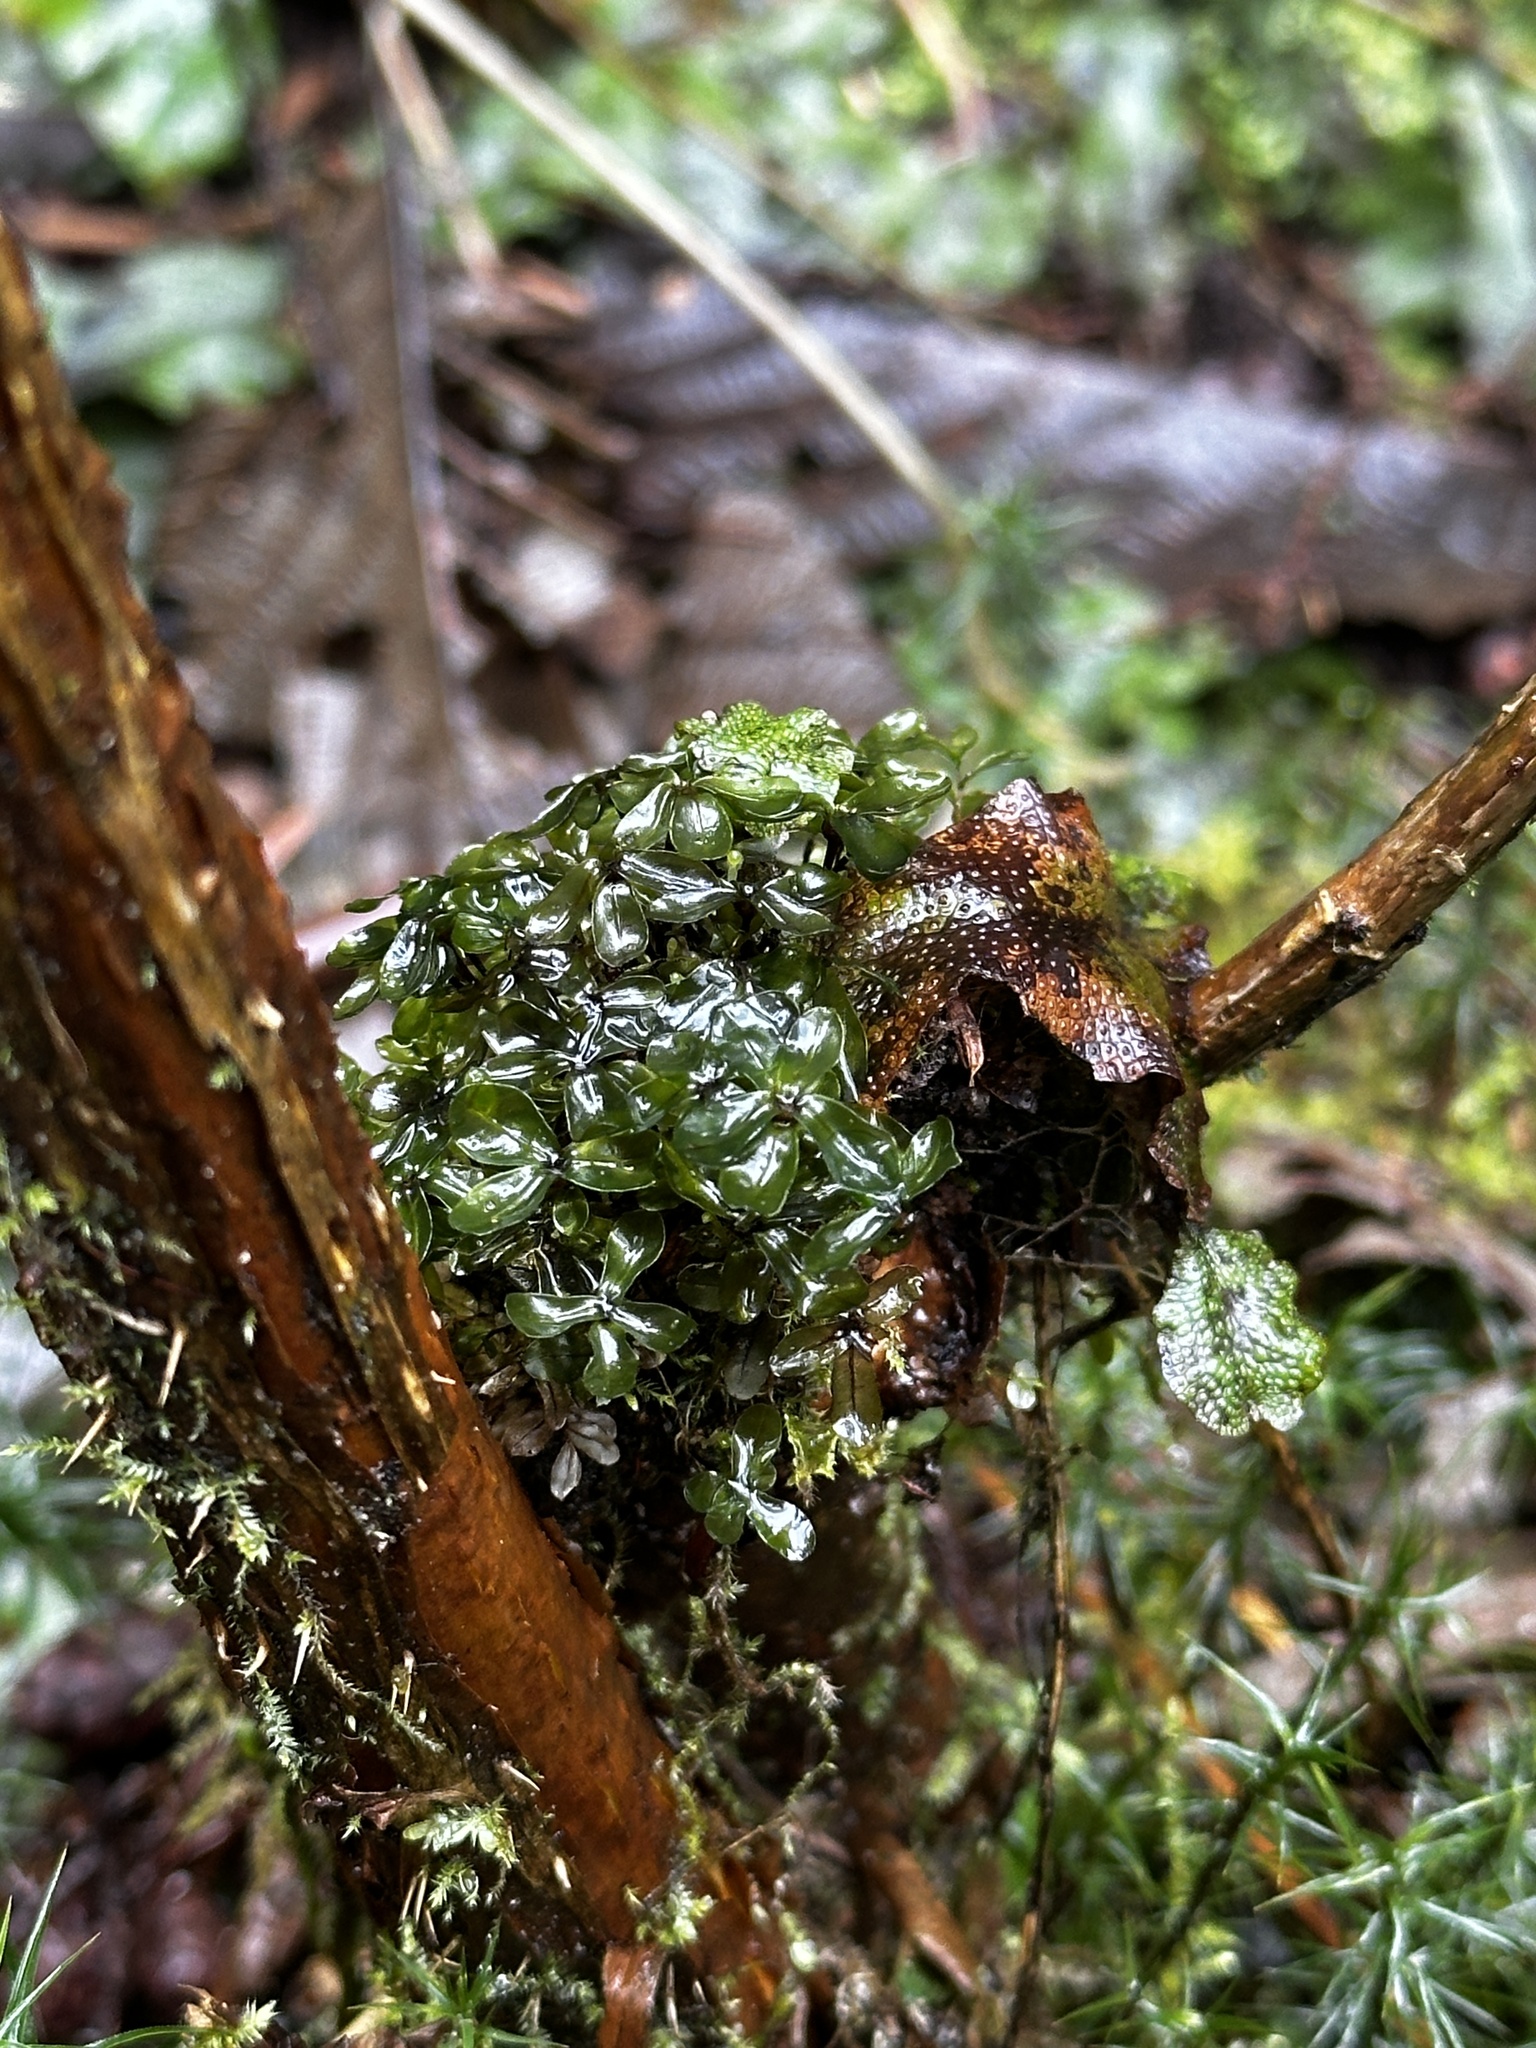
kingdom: Plantae
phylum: Bryophyta
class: Bryopsida
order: Bryales
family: Mniaceae
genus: Rhizomnium
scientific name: Rhizomnium glabrescens
